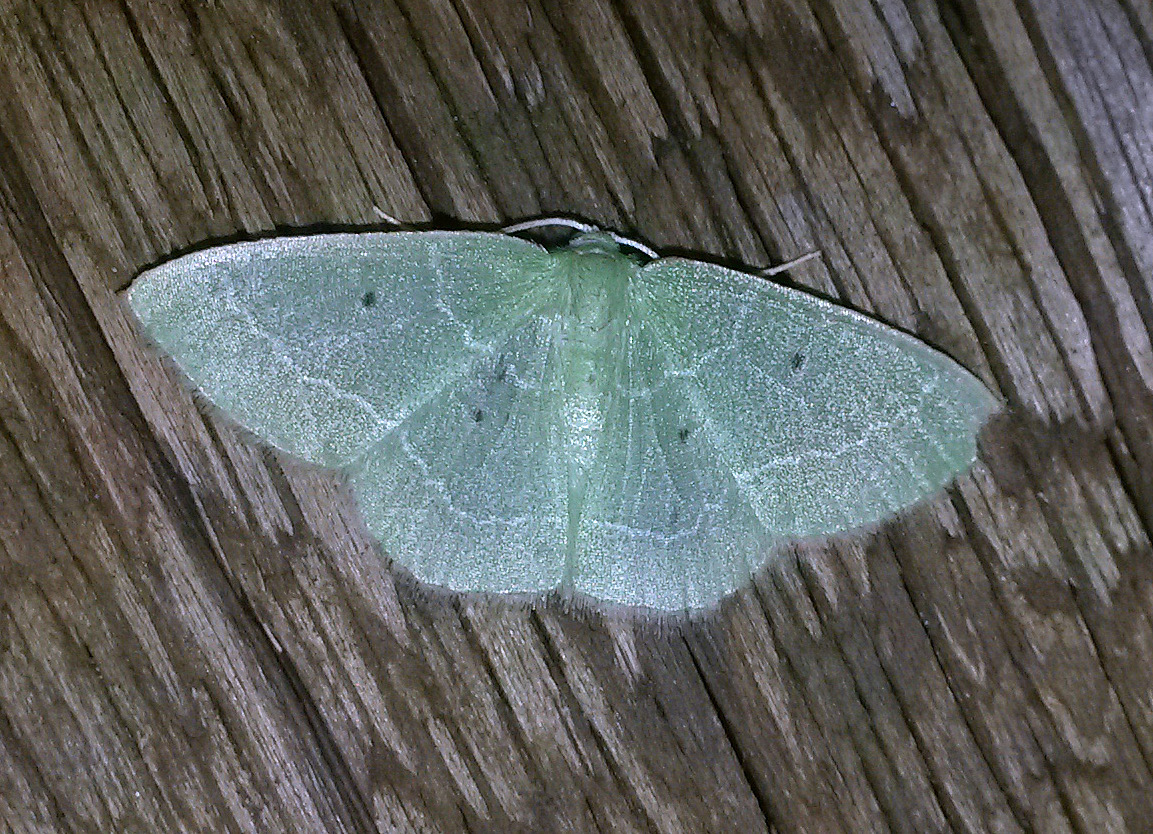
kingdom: Animalia
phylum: Arthropoda
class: Insecta
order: Lepidoptera
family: Geometridae
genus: Nemoria
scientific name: Nemoria elfa
